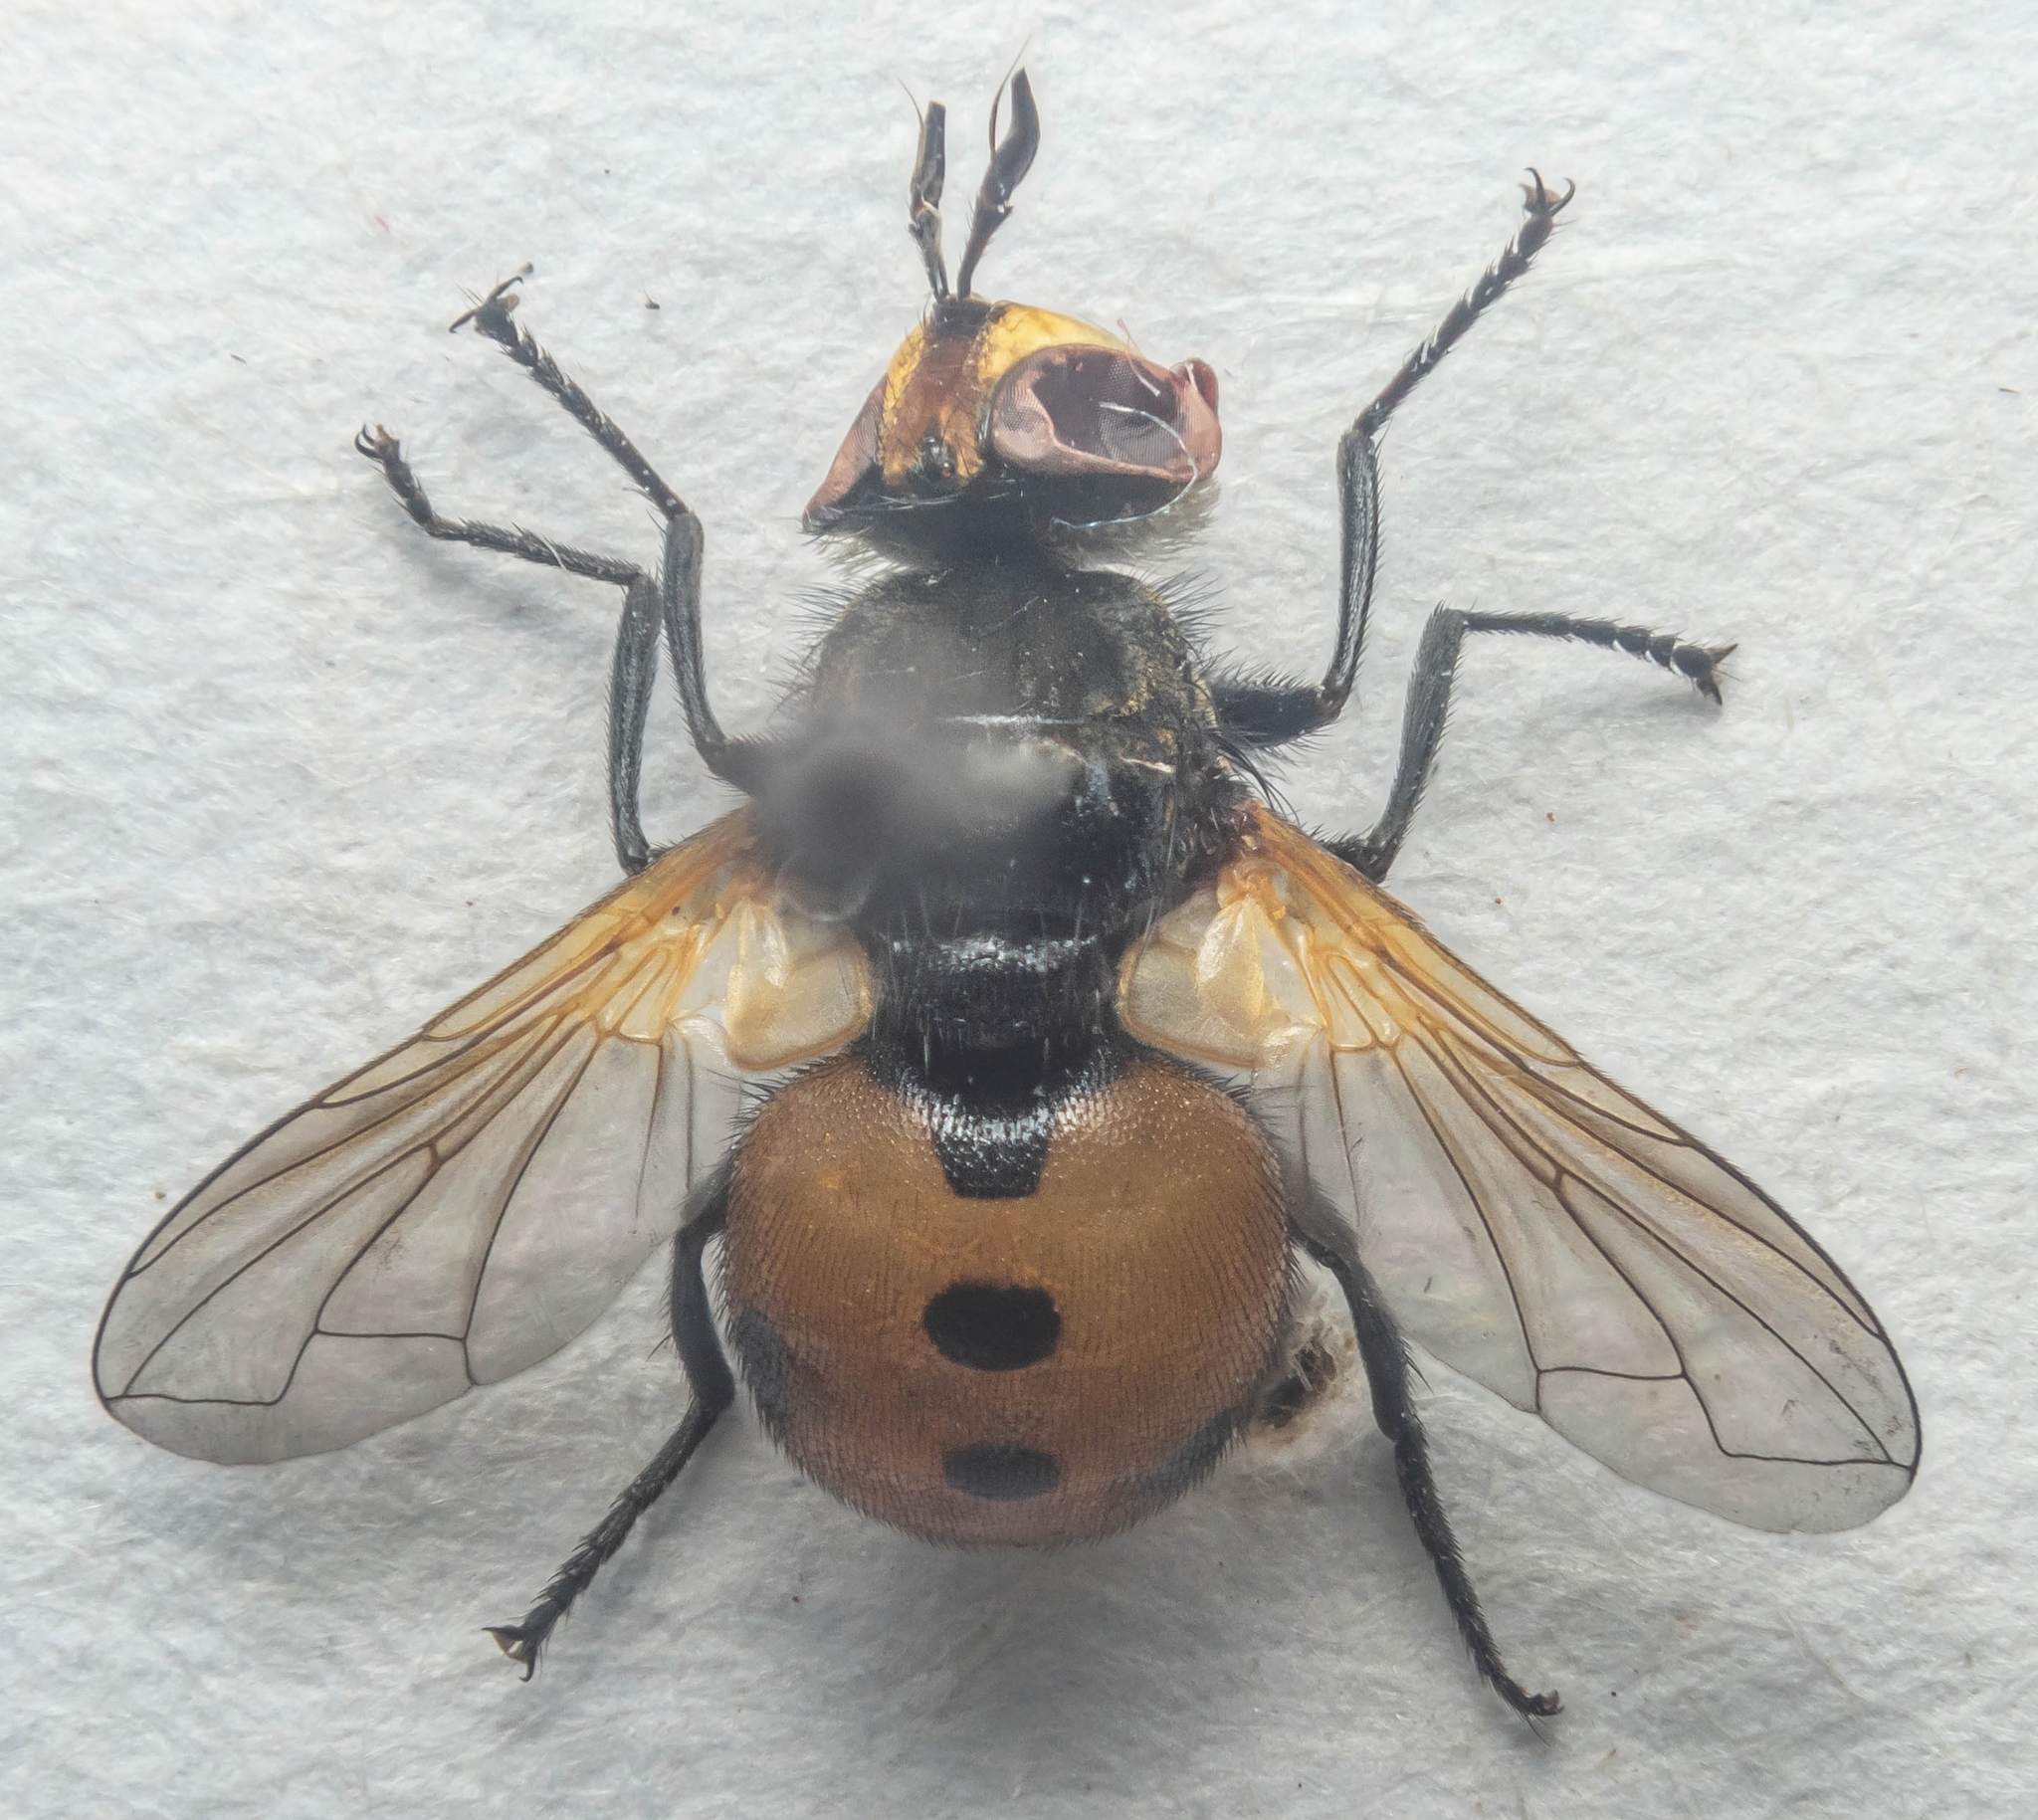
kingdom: Animalia
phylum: Arthropoda
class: Insecta
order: Diptera
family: Tachinidae
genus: Gymnosoma
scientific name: Gymnosoma rotundatum
